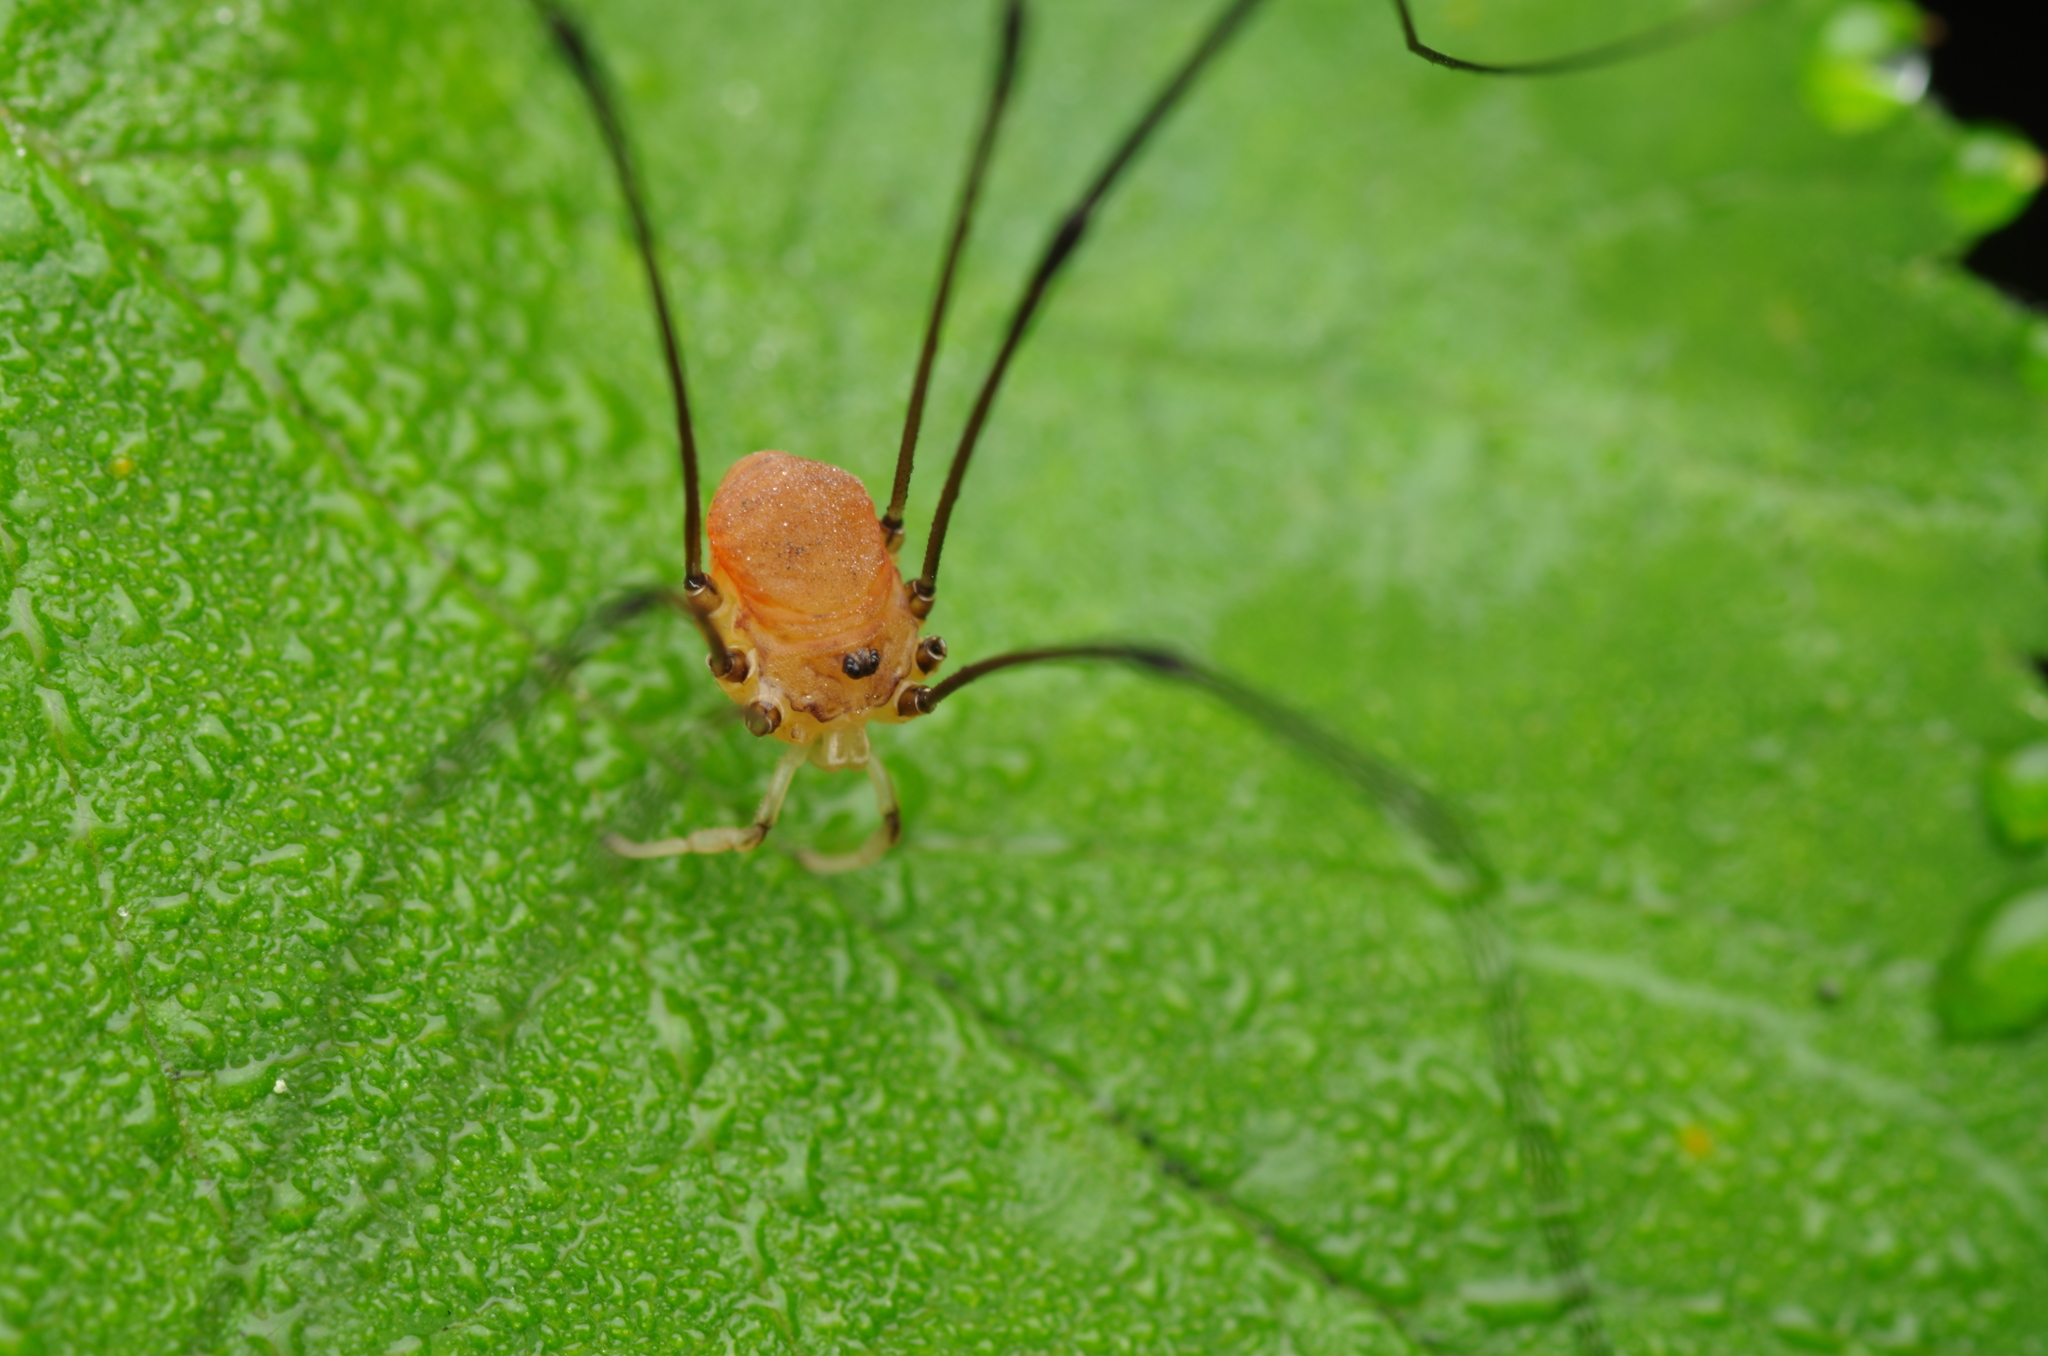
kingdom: Animalia
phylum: Arthropoda
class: Arachnida
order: Opiliones
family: Sclerosomatidae
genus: Leiobunum
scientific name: Leiobunum blackwalli
